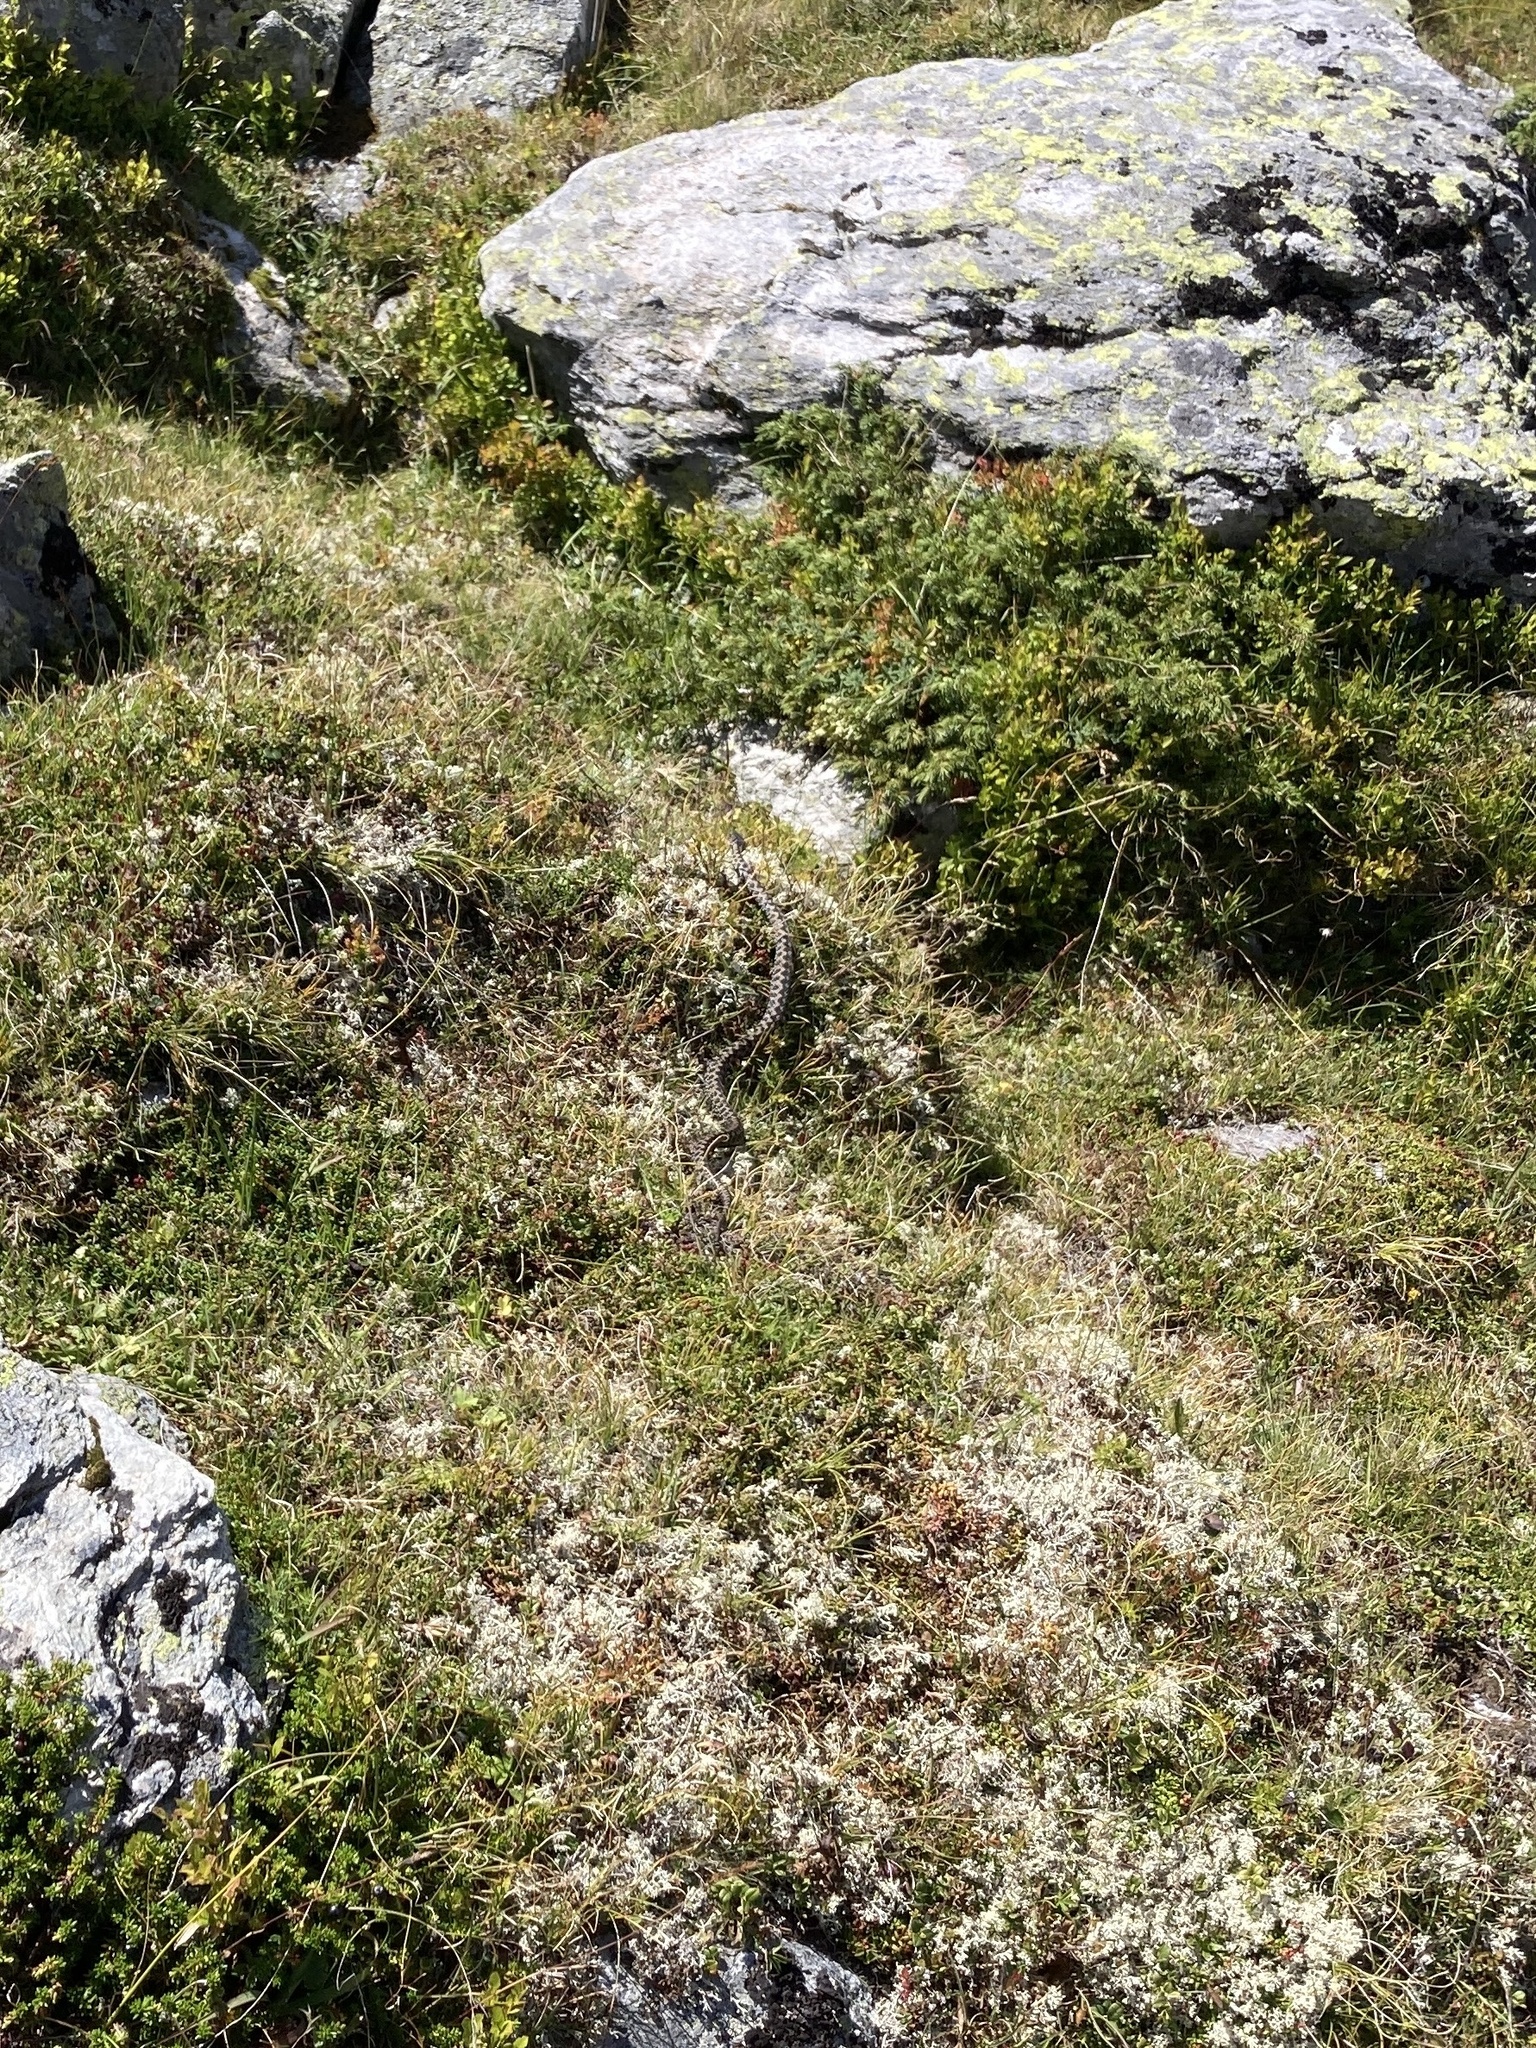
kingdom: Animalia
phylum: Chordata
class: Squamata
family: Viperidae
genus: Vipera
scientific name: Vipera berus
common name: Adder
